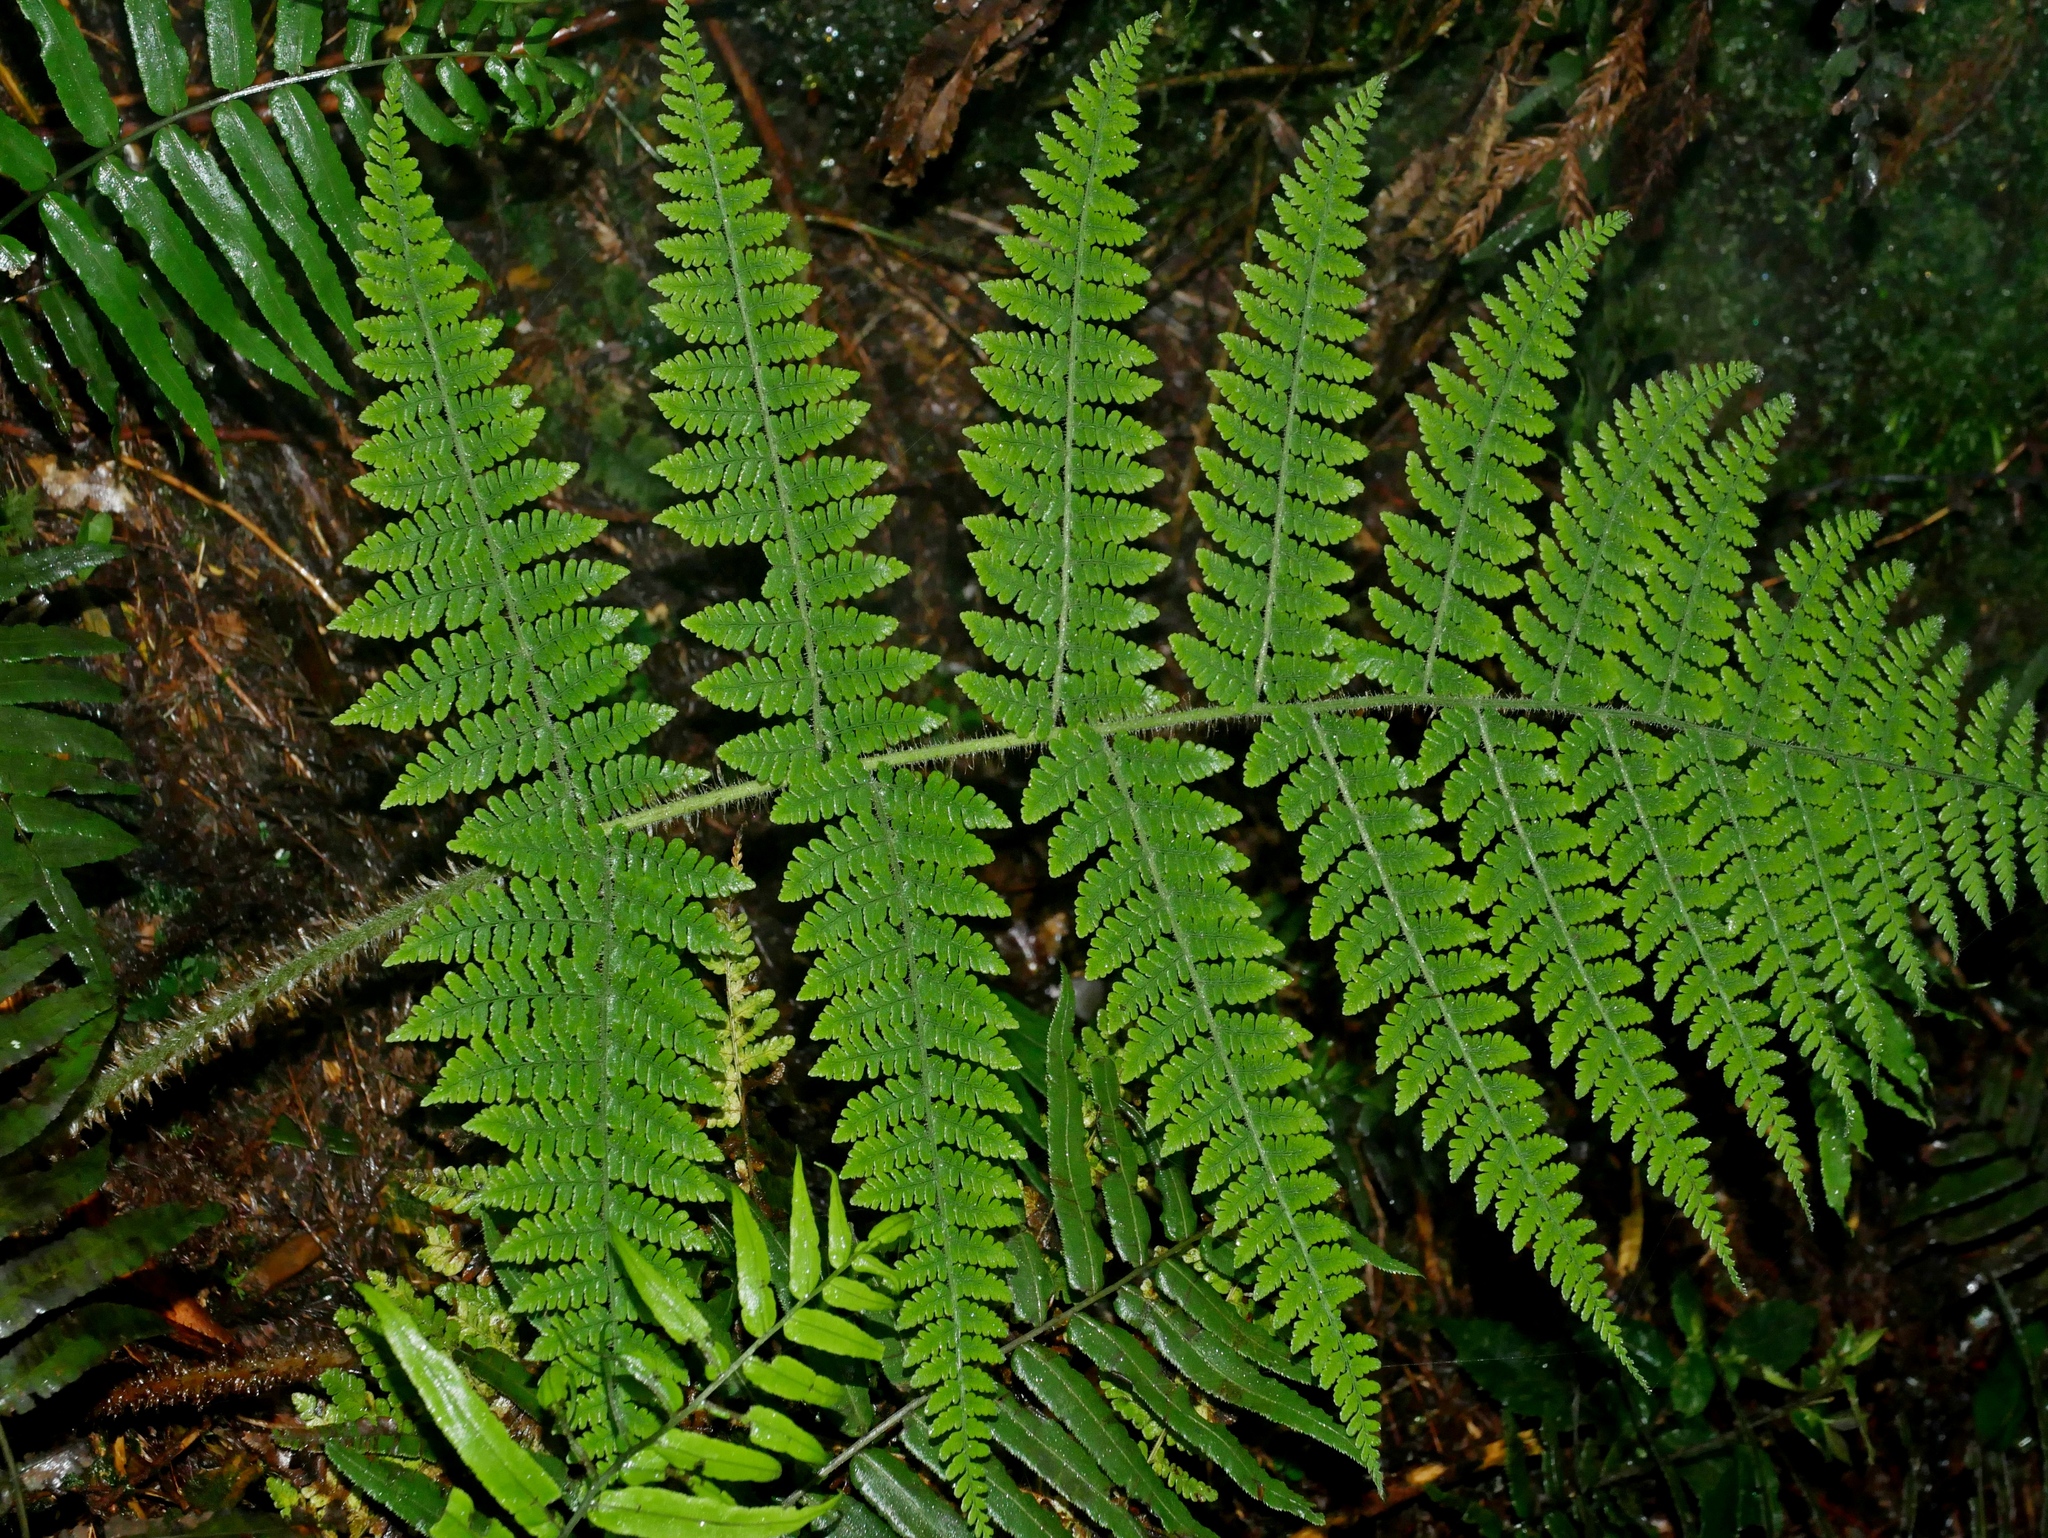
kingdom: Plantae
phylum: Tracheophyta
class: Polypodiopsida
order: Polypodiales
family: Dryopteridaceae
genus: Dryopteris
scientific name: Dryopteris maximowicziana
